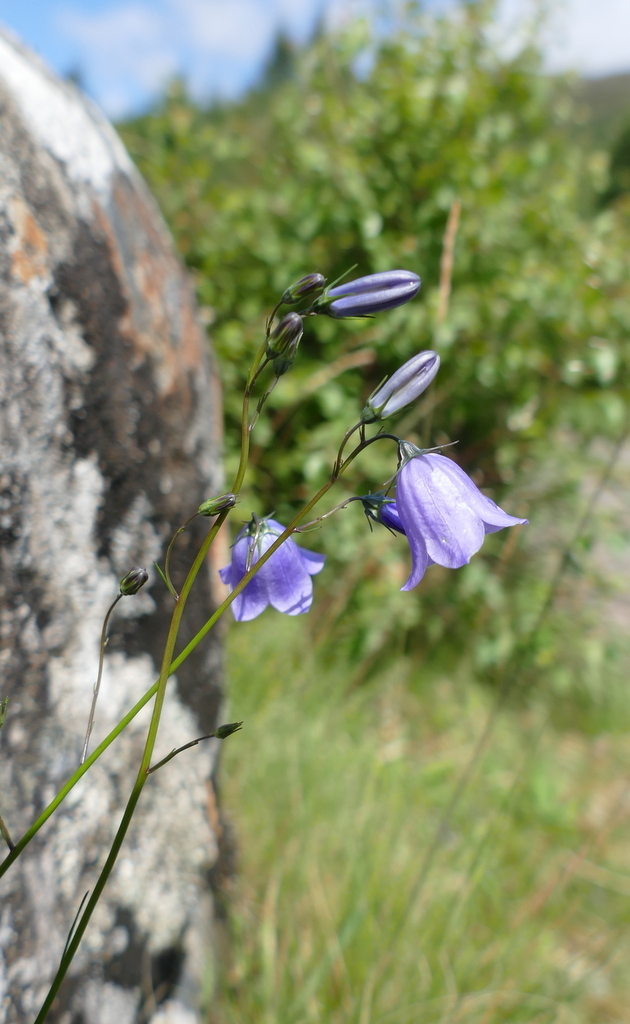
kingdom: Plantae
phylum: Tracheophyta
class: Magnoliopsida
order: Asterales
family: Campanulaceae
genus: Campanula
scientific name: Campanula rotundifolia
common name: Harebell
